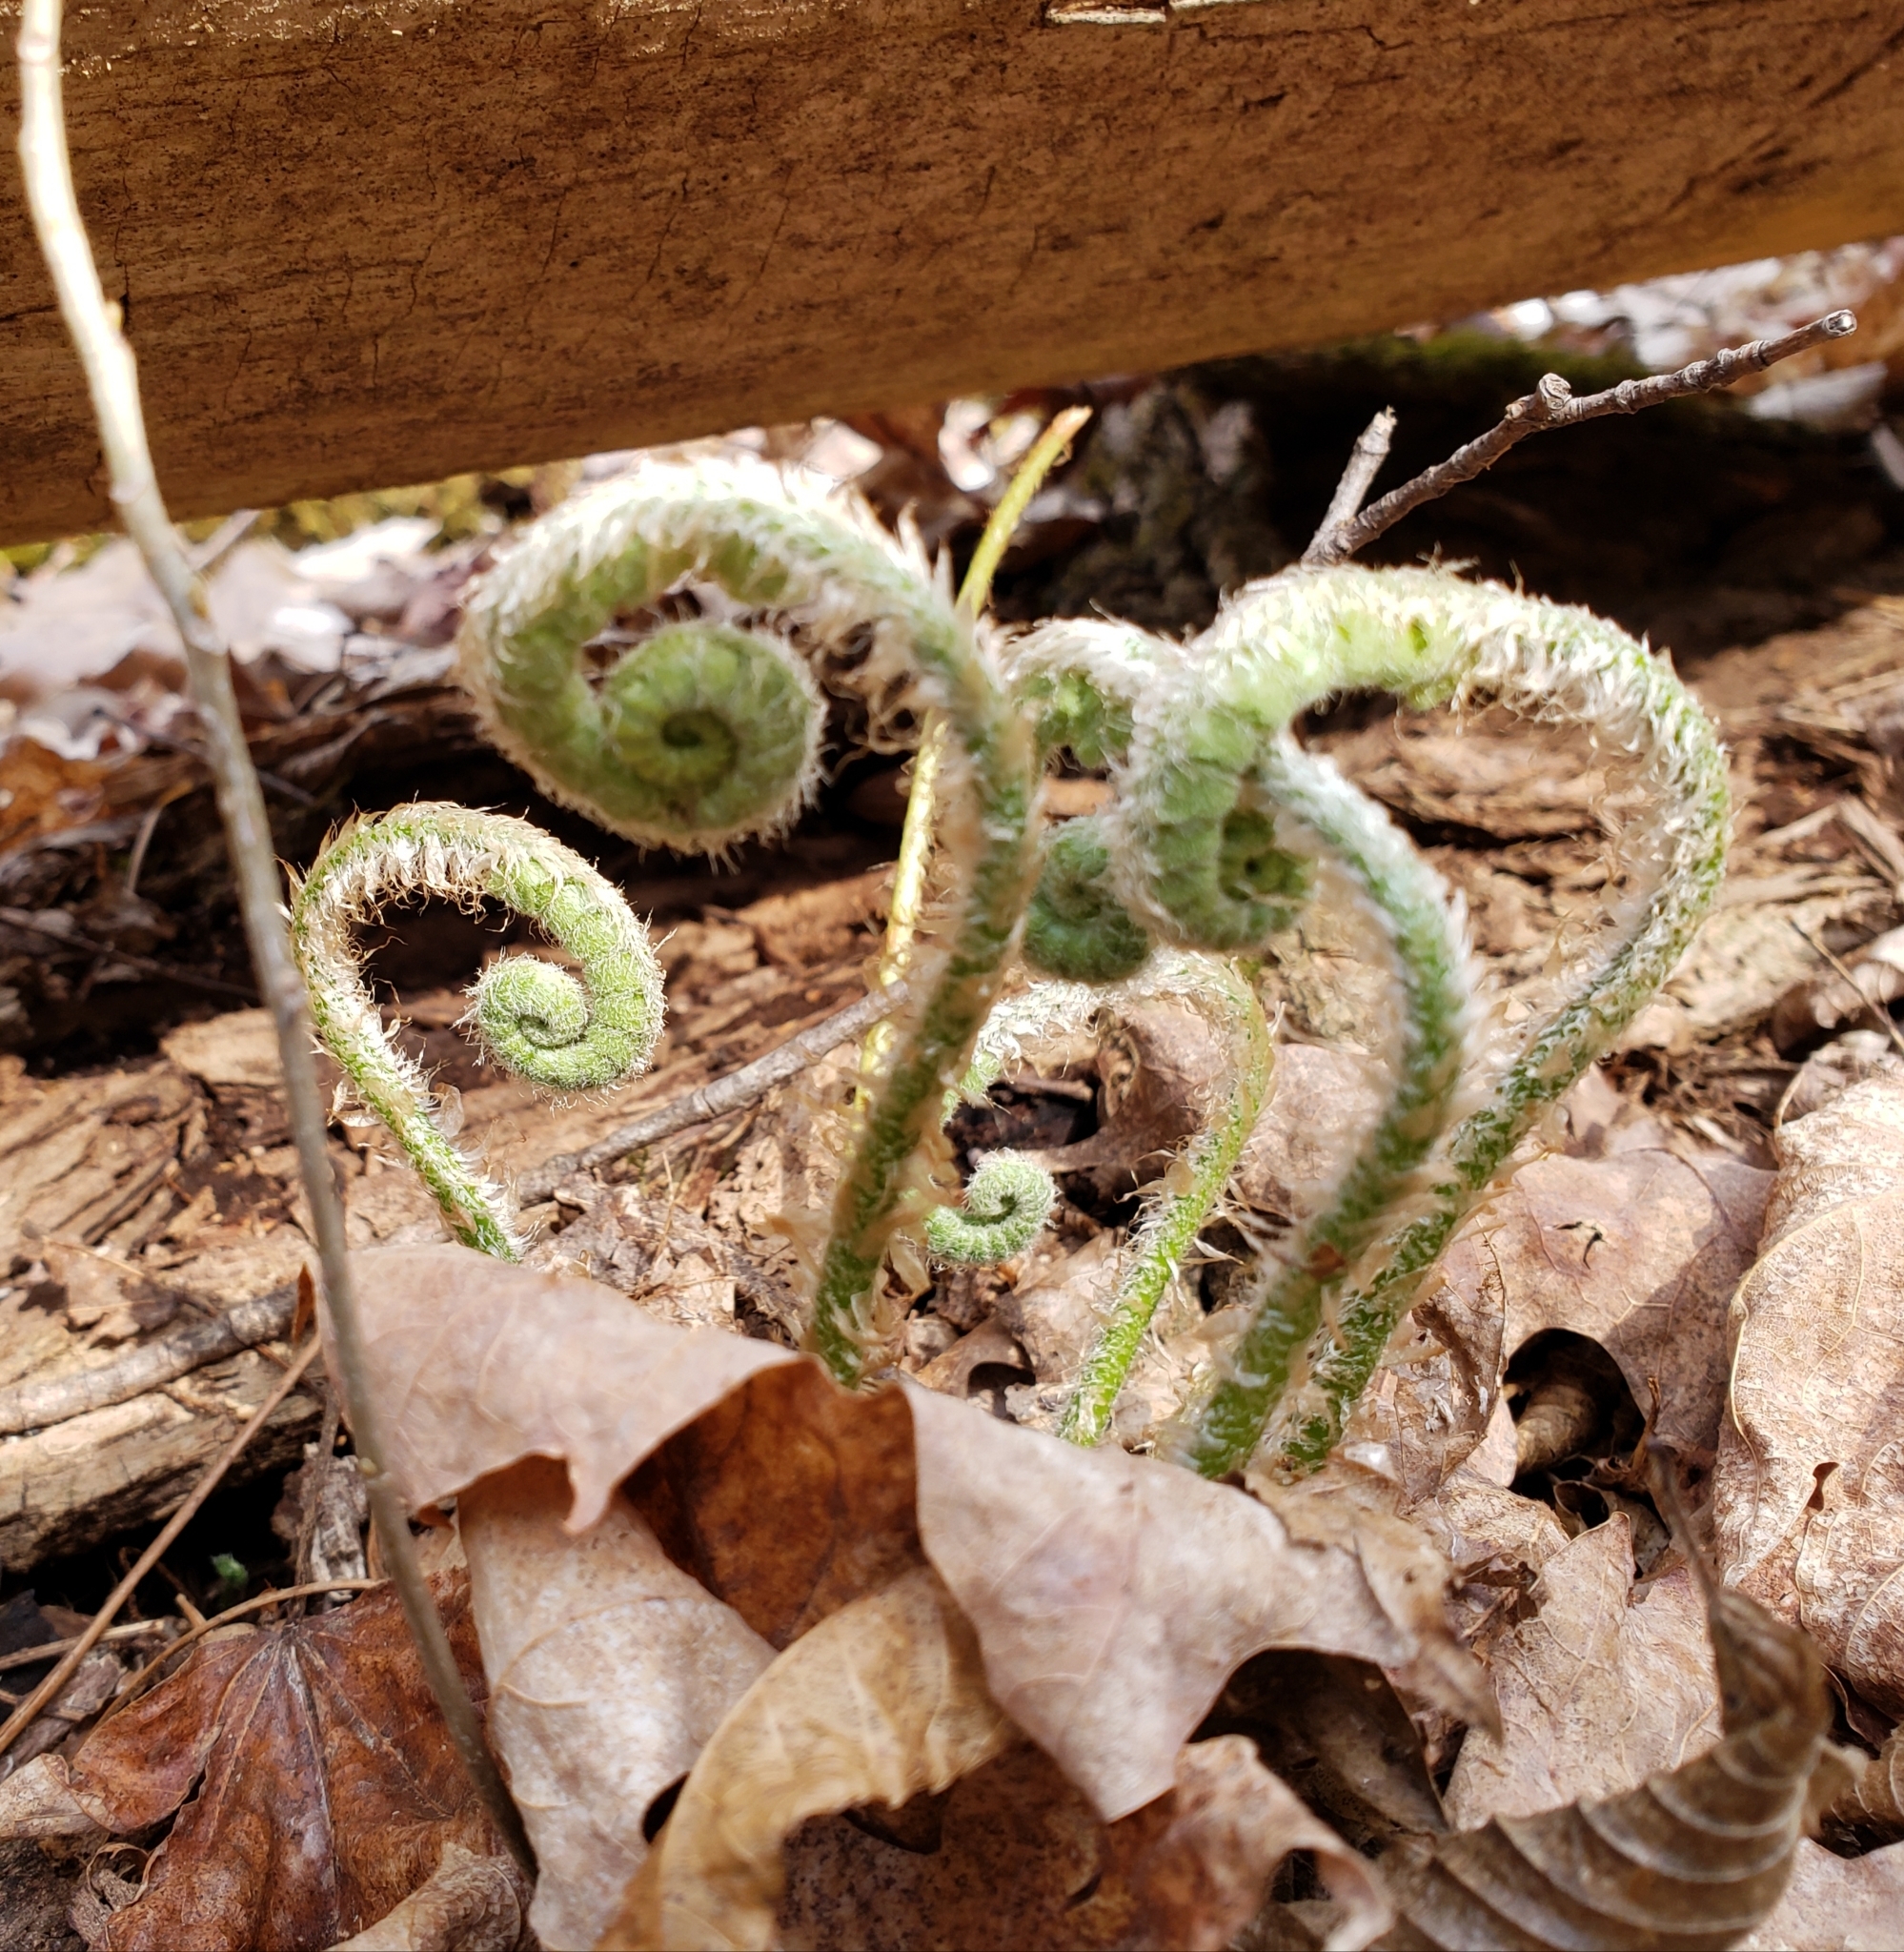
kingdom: Plantae
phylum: Tracheophyta
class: Polypodiopsida
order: Polypodiales
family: Dryopteridaceae
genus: Polystichum
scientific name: Polystichum acrostichoides
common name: Christmas fern
